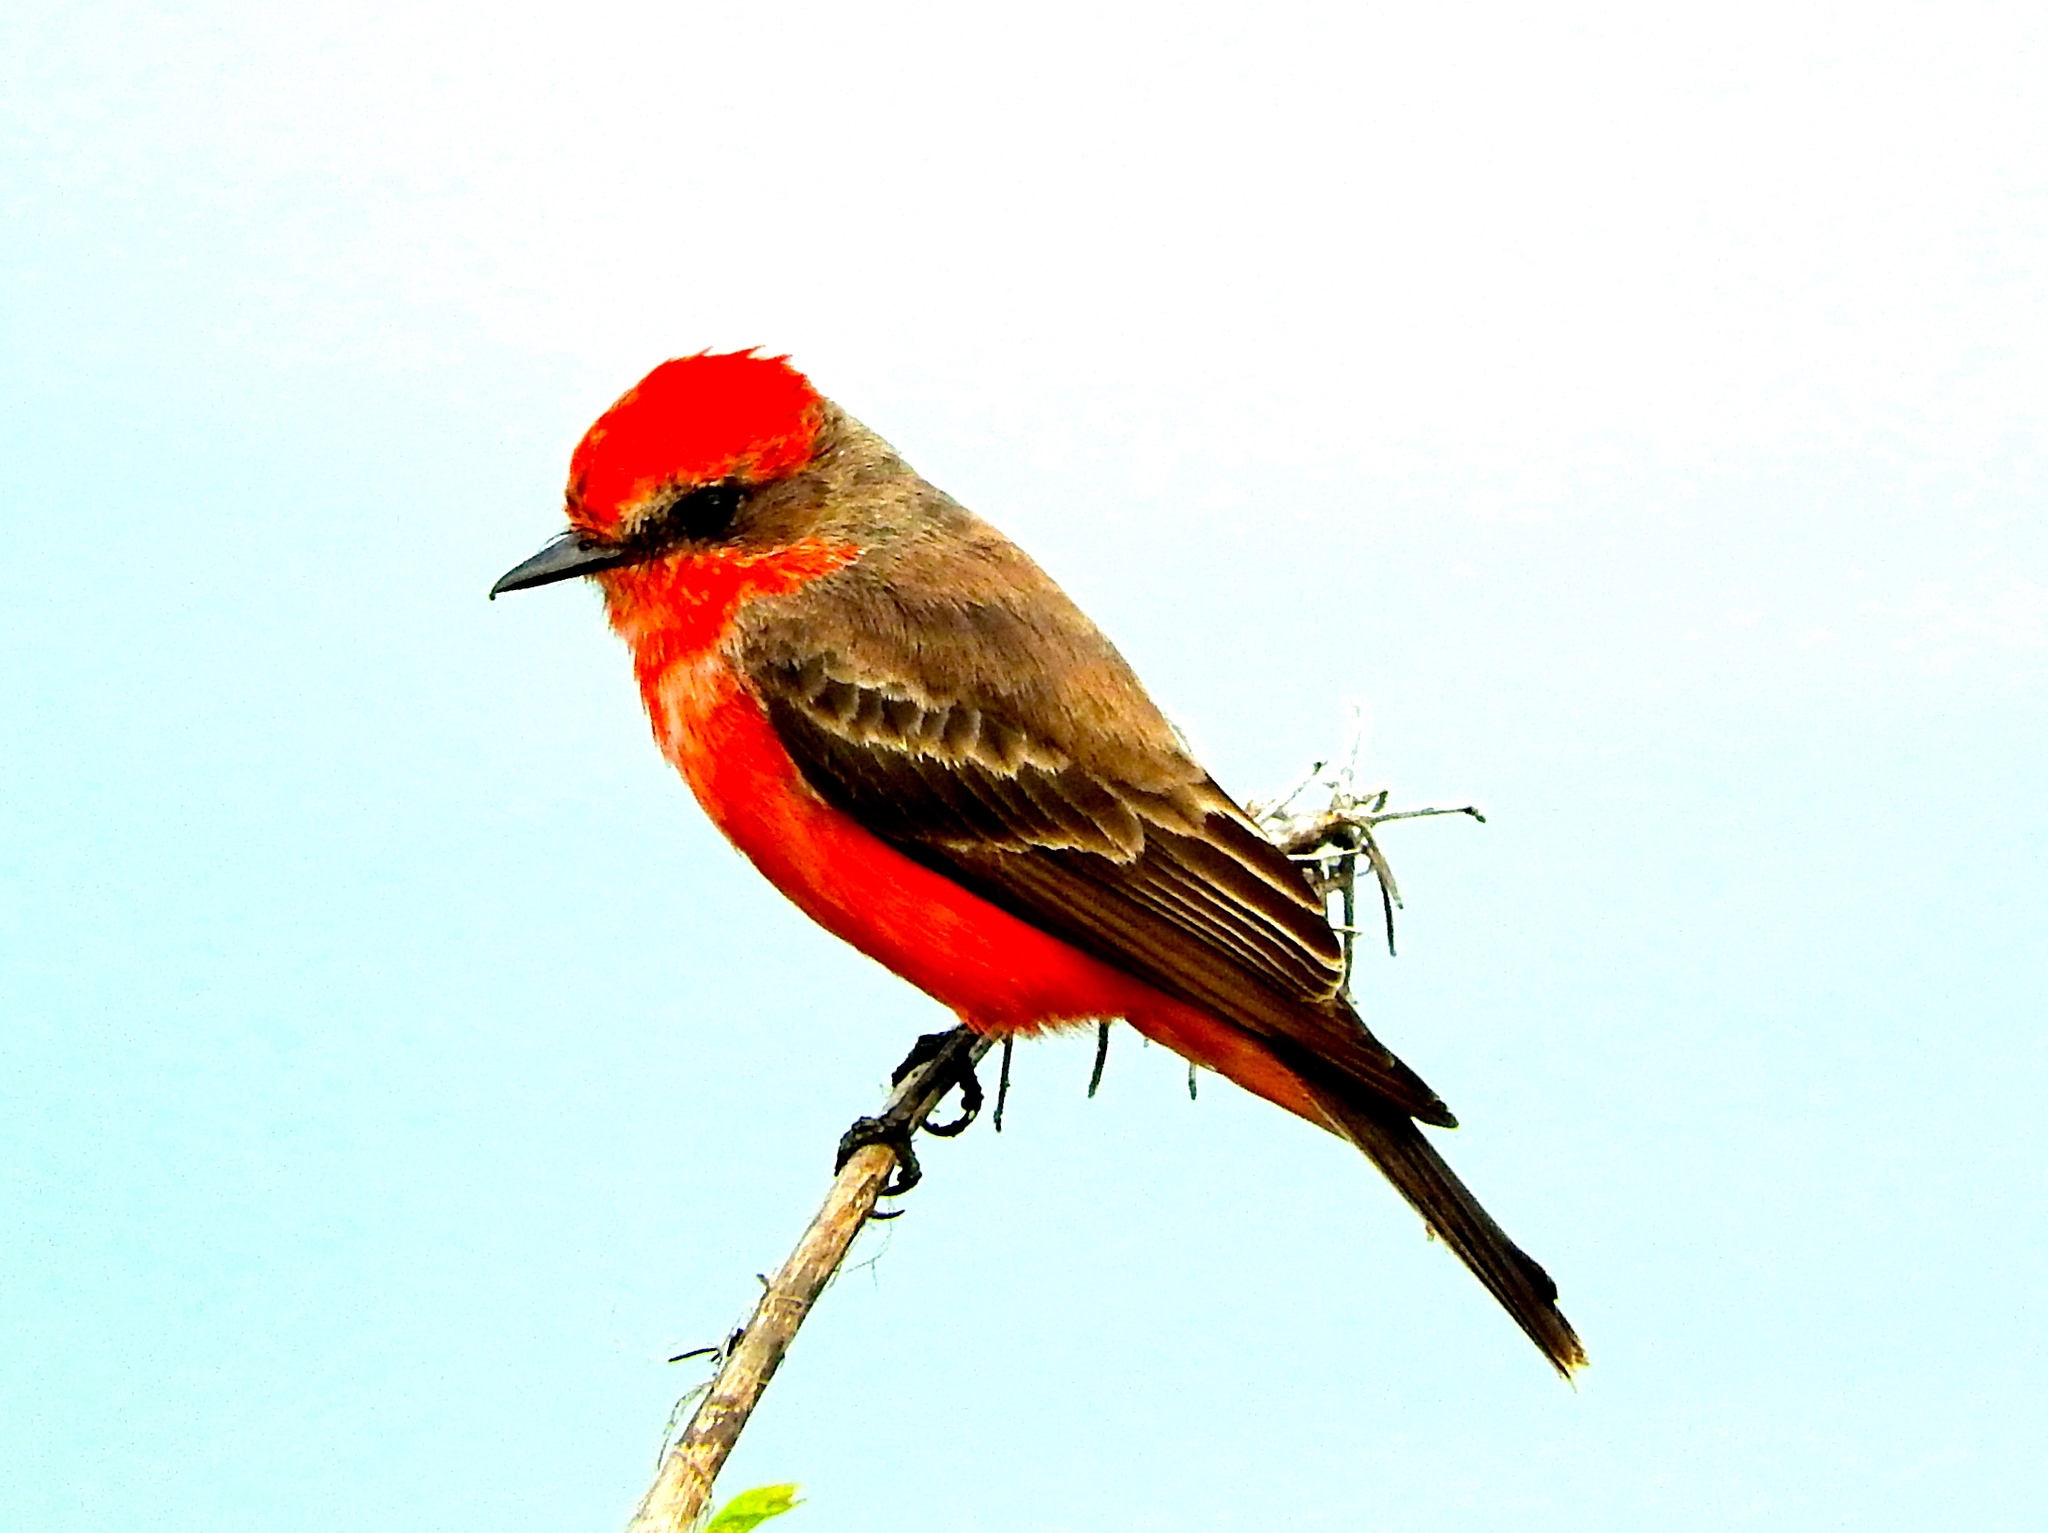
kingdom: Animalia
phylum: Chordata
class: Aves
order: Passeriformes
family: Tyrannidae
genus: Pyrocephalus
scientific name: Pyrocephalus rubinus
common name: Vermilion flycatcher
